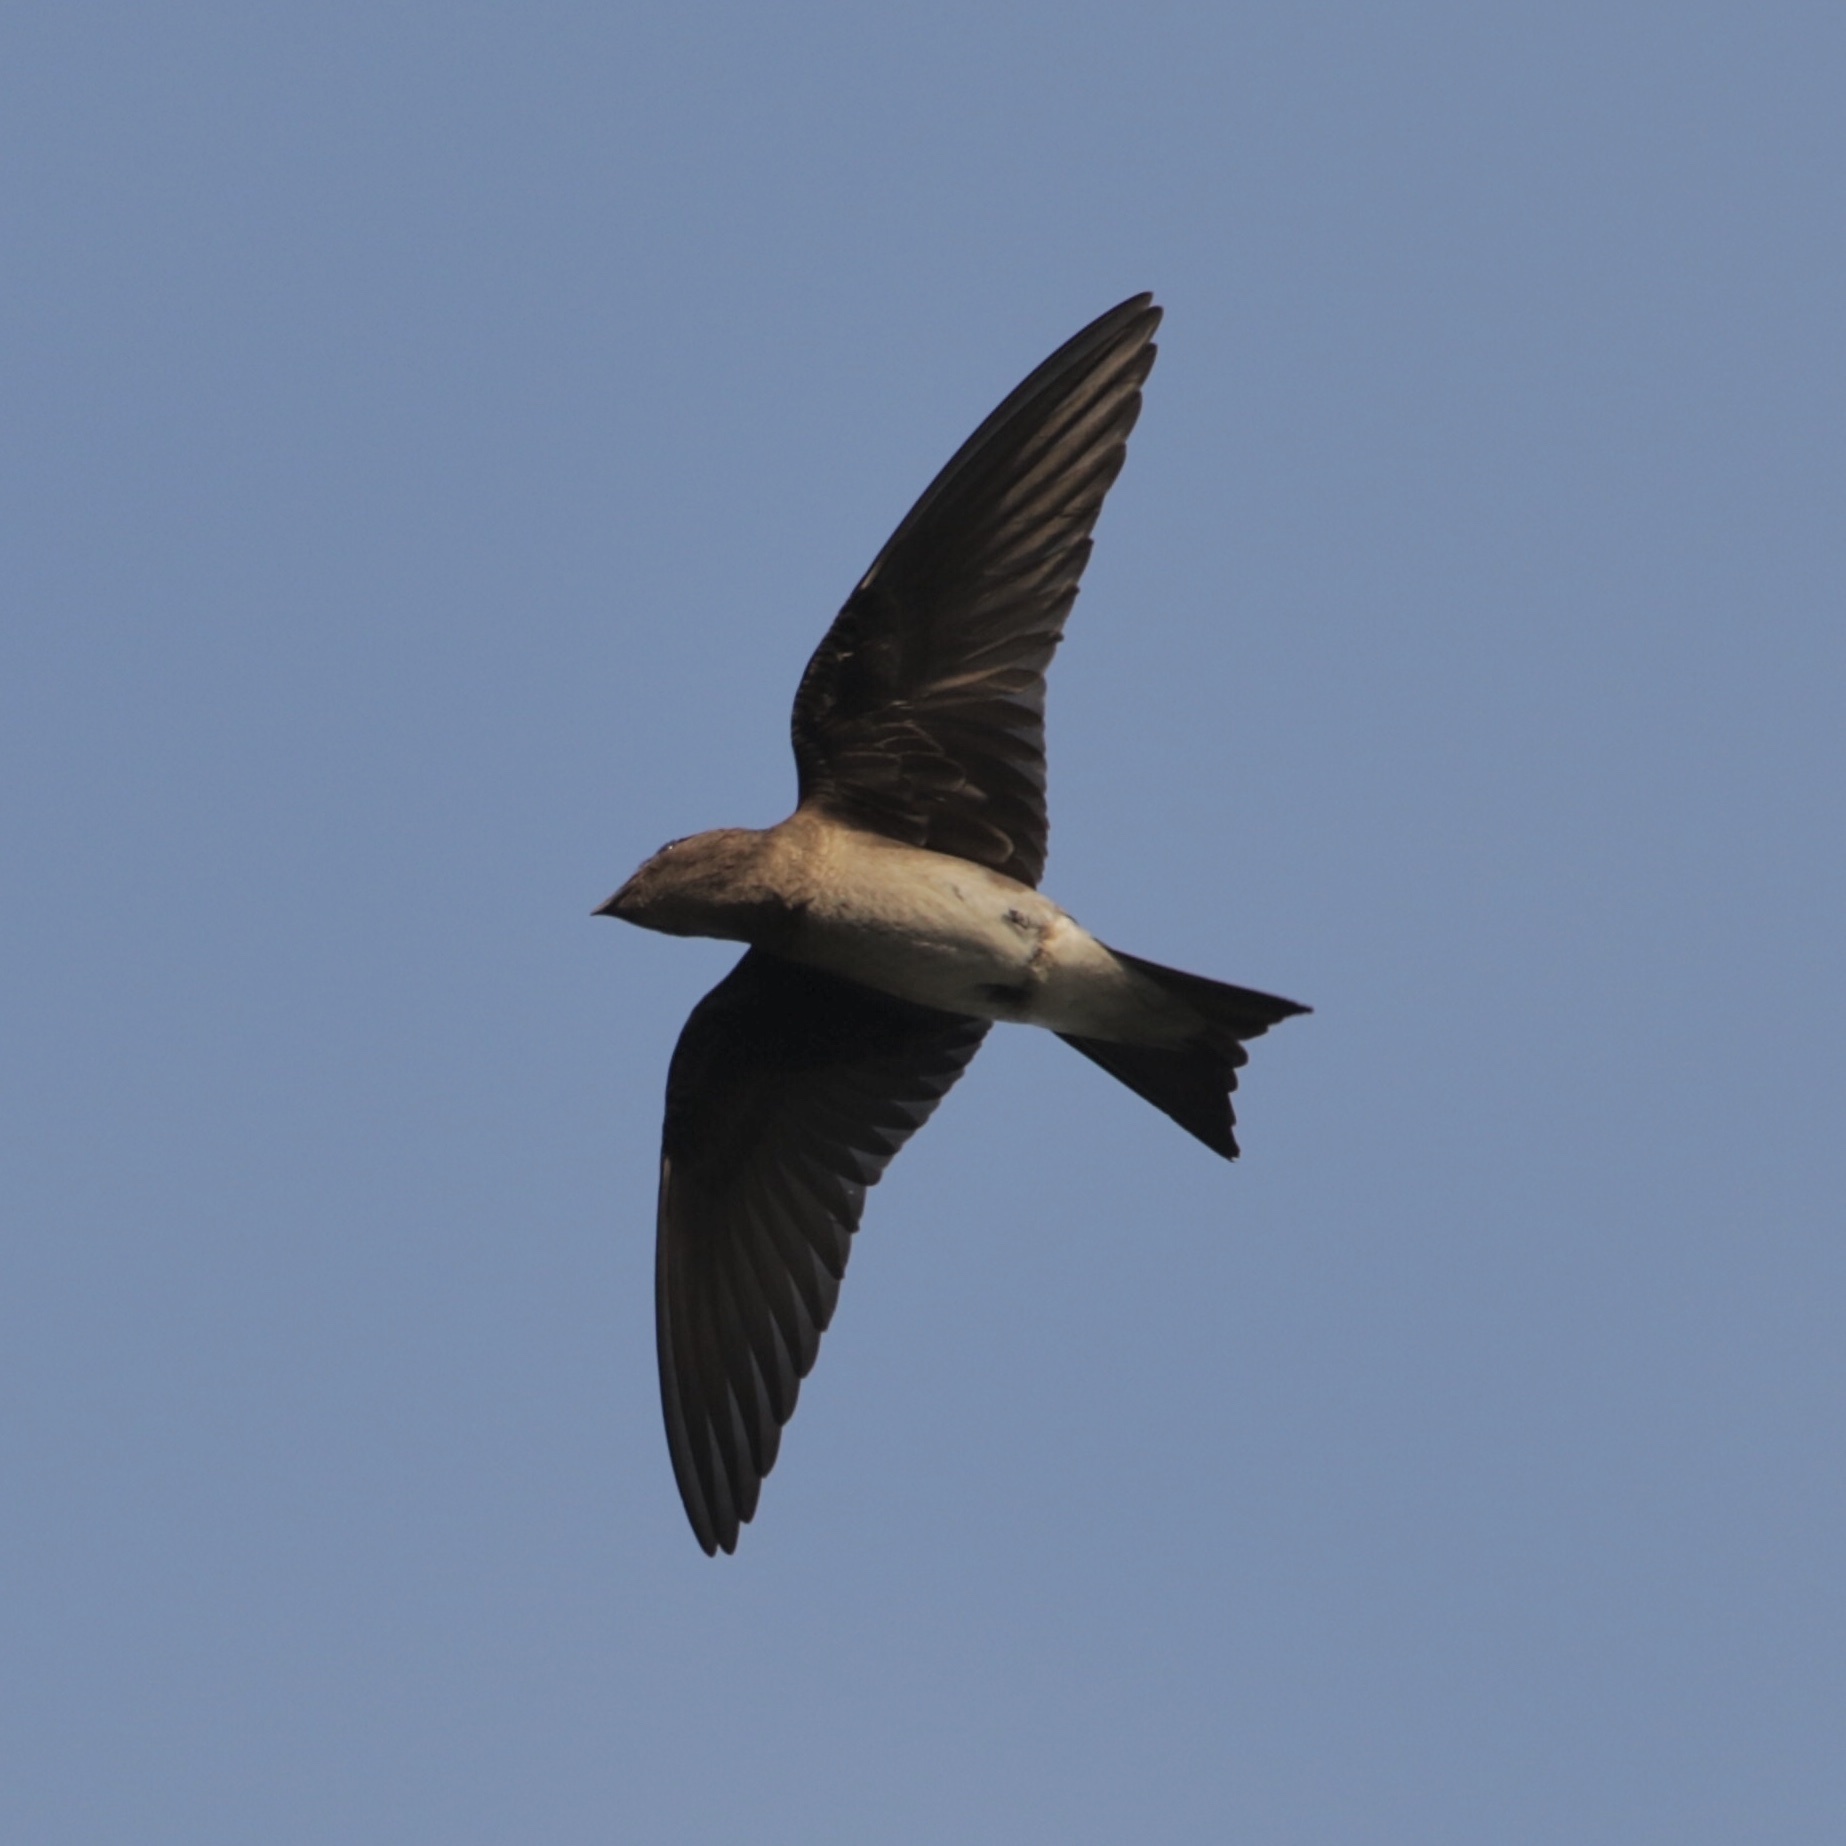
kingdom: Animalia
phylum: Chordata
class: Aves
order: Passeriformes
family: Hirundinidae
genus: Progne
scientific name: Progne chalybea
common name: Grey-breasted martin
